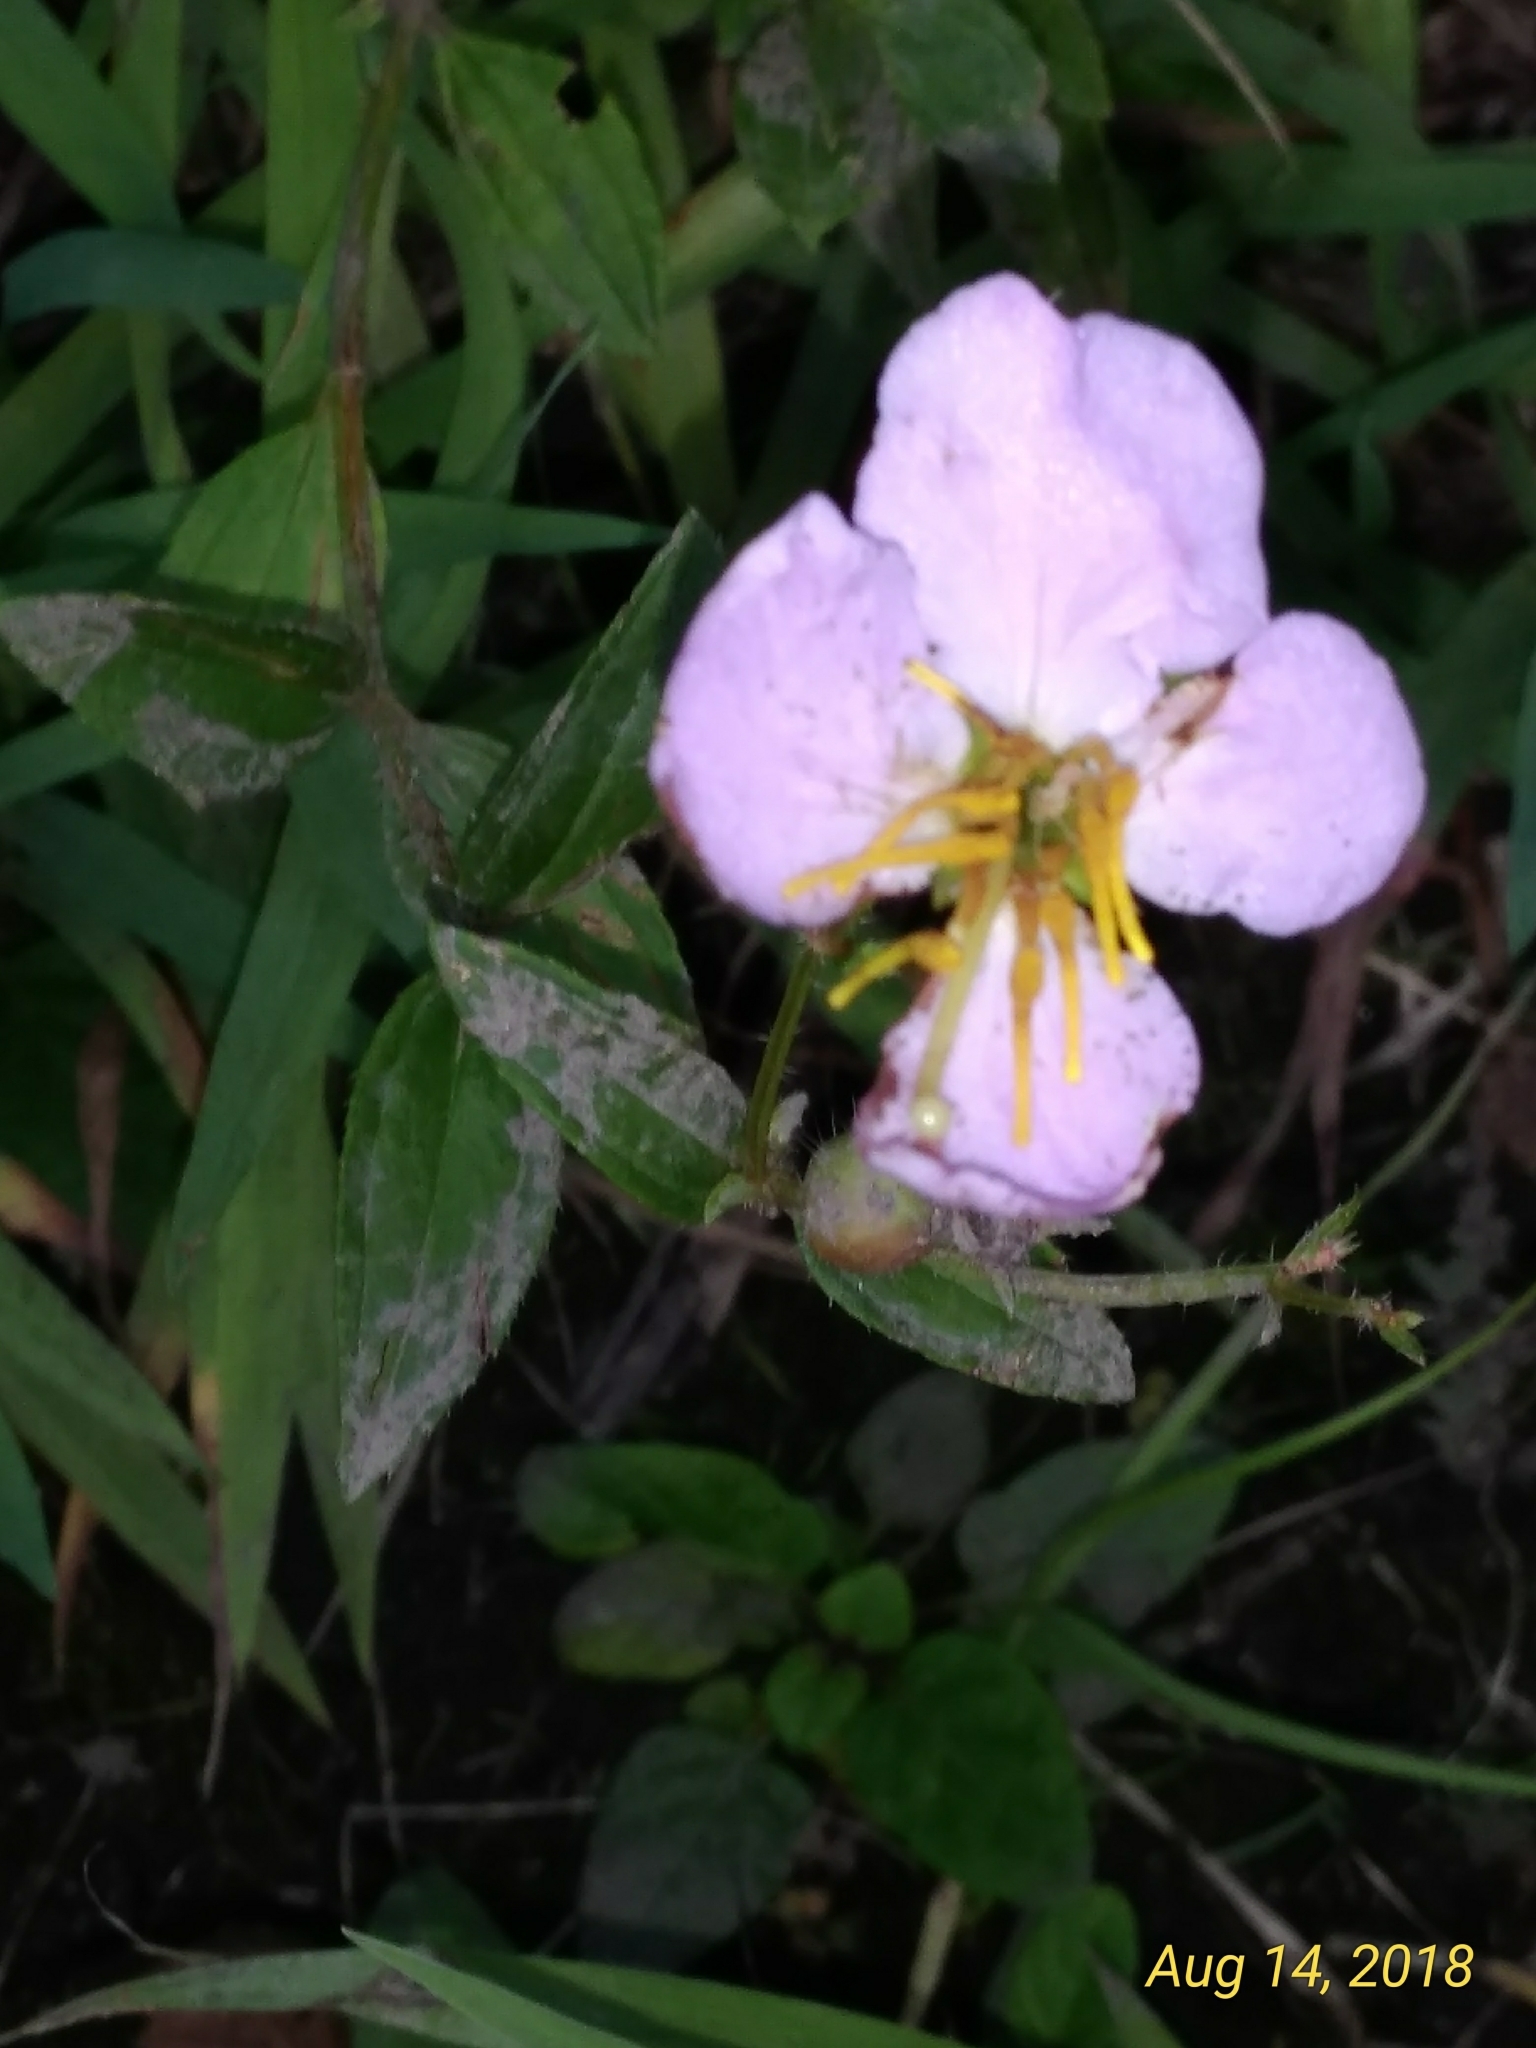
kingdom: Plantae
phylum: Tracheophyta
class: Magnoliopsida
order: Myrtales
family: Melastomataceae
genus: Rhexia
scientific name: Rhexia virginica
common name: Common meadow beauty
